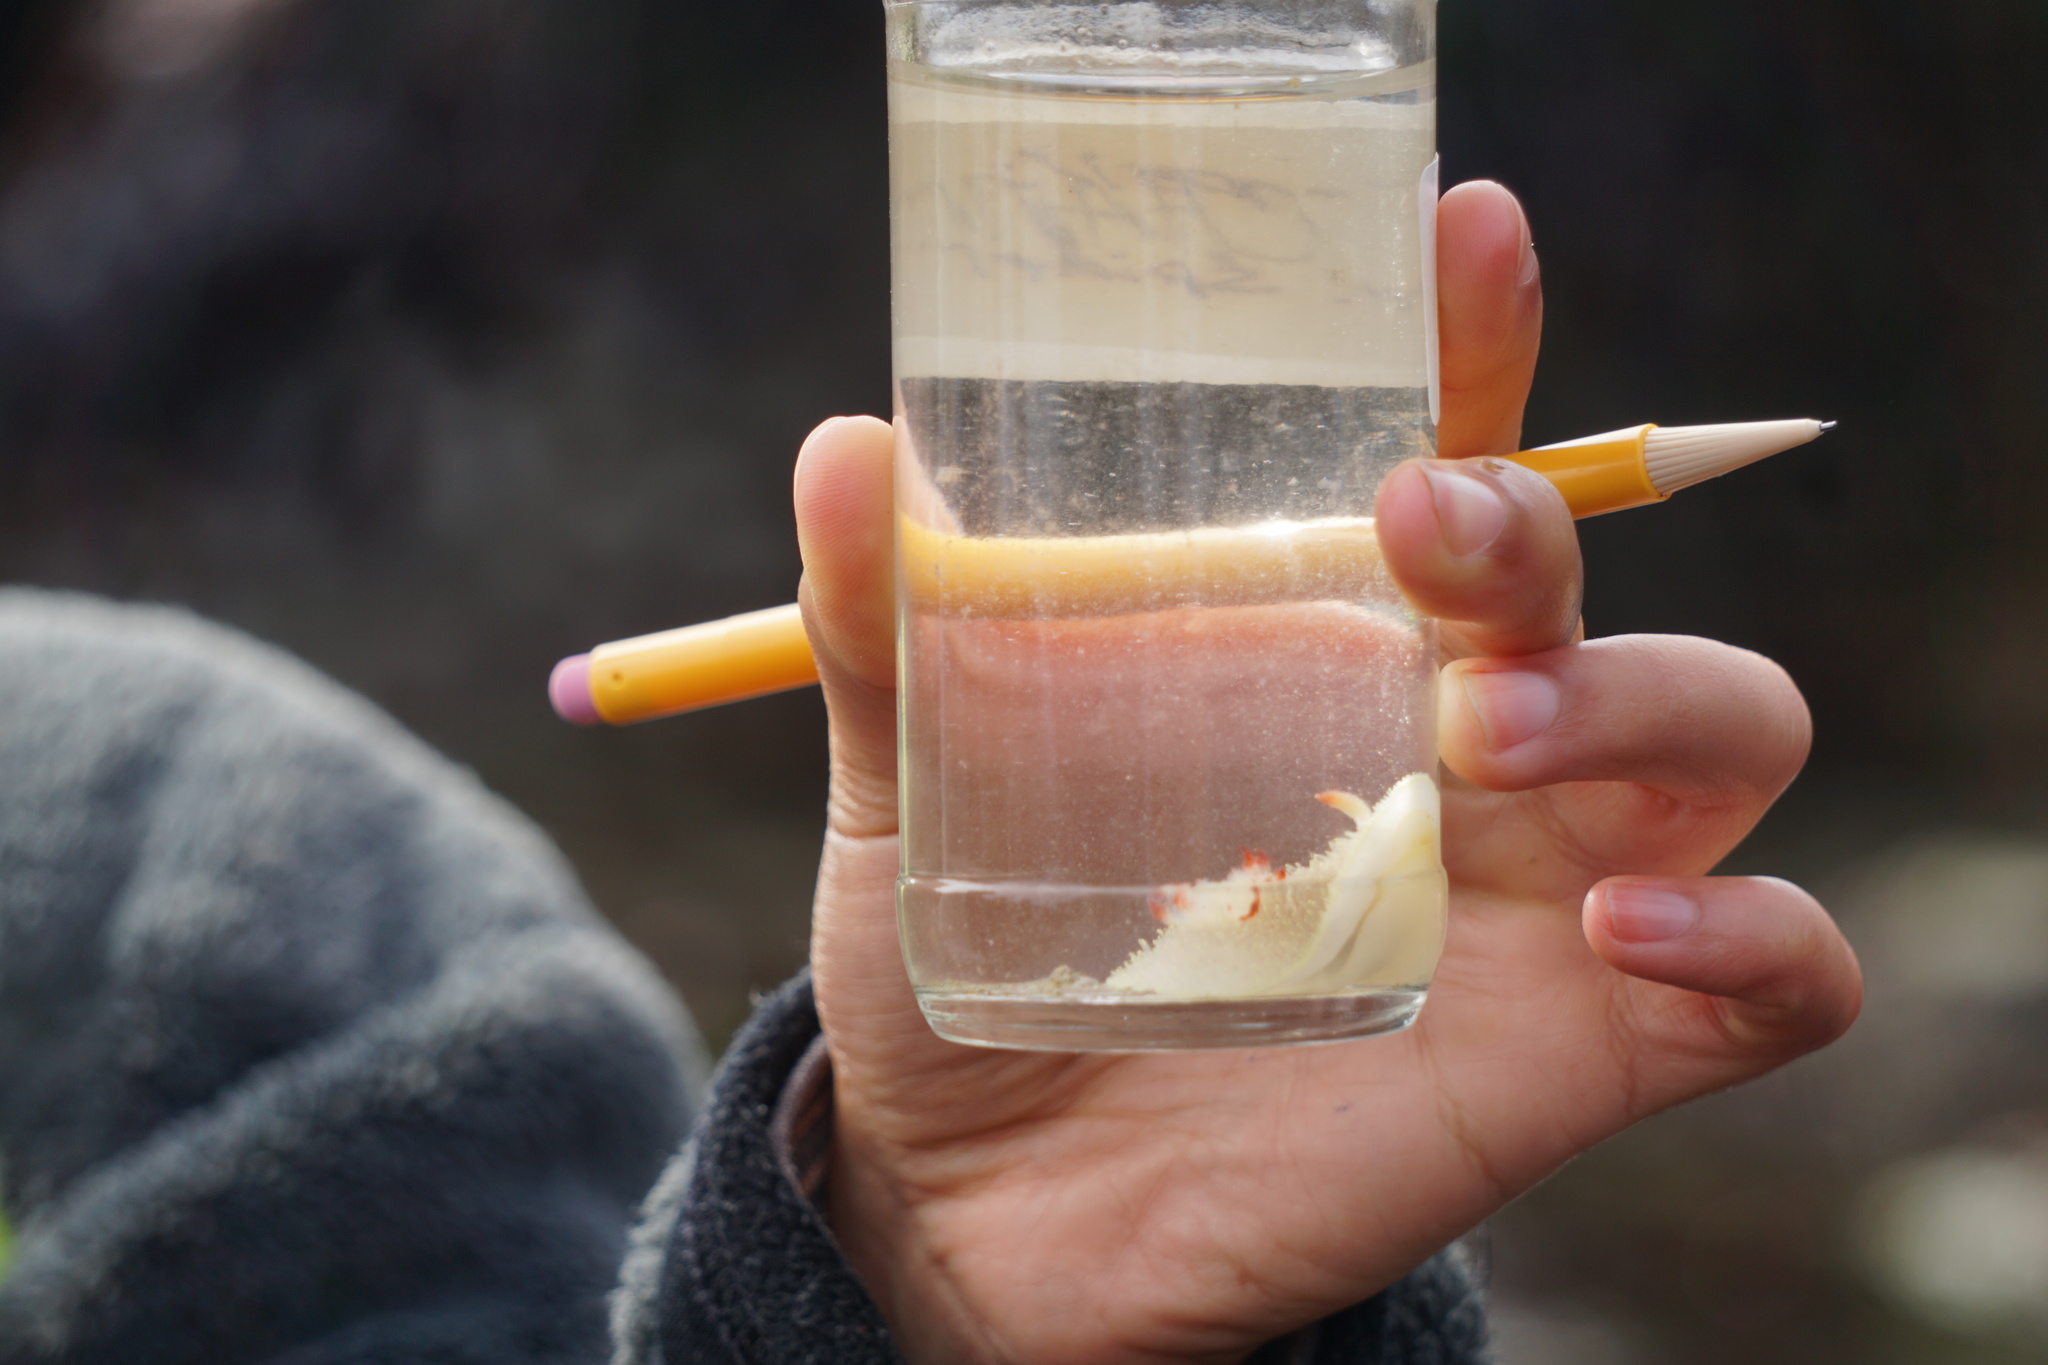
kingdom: Animalia
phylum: Mollusca
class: Gastropoda
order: Nudibranchia
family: Onchidorididae
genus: Acanthodoris
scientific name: Acanthodoris nanaimoensis
